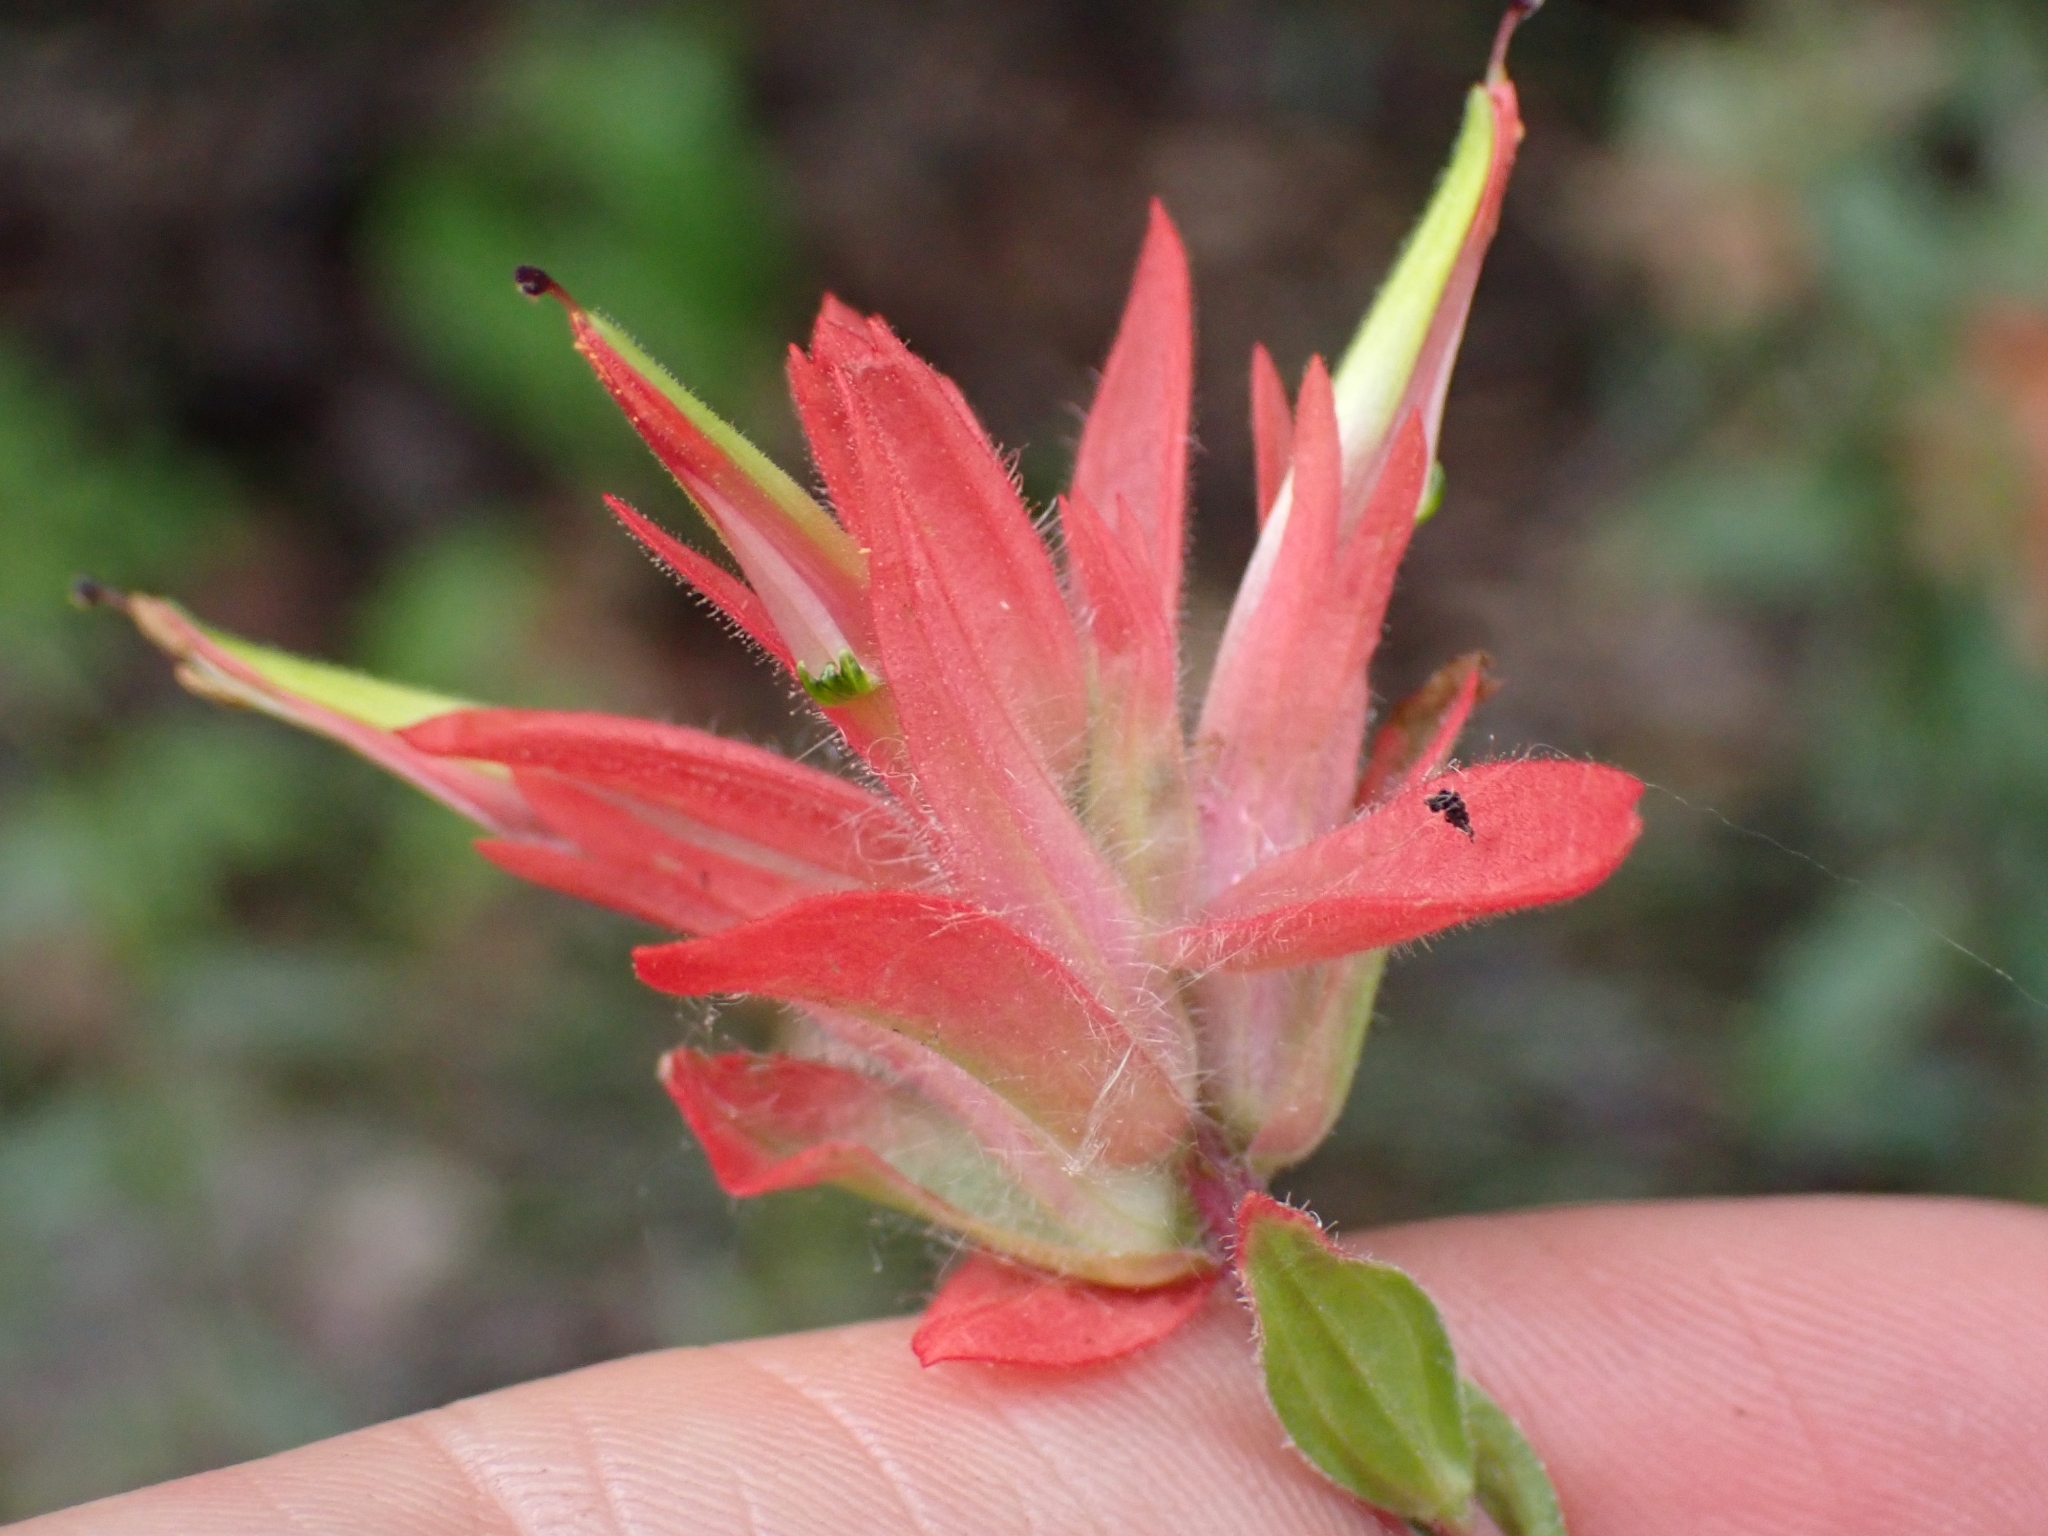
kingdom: Plantae
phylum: Tracheophyta
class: Magnoliopsida
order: Lamiales
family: Orobanchaceae
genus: Castilleja
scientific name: Castilleja miniata
